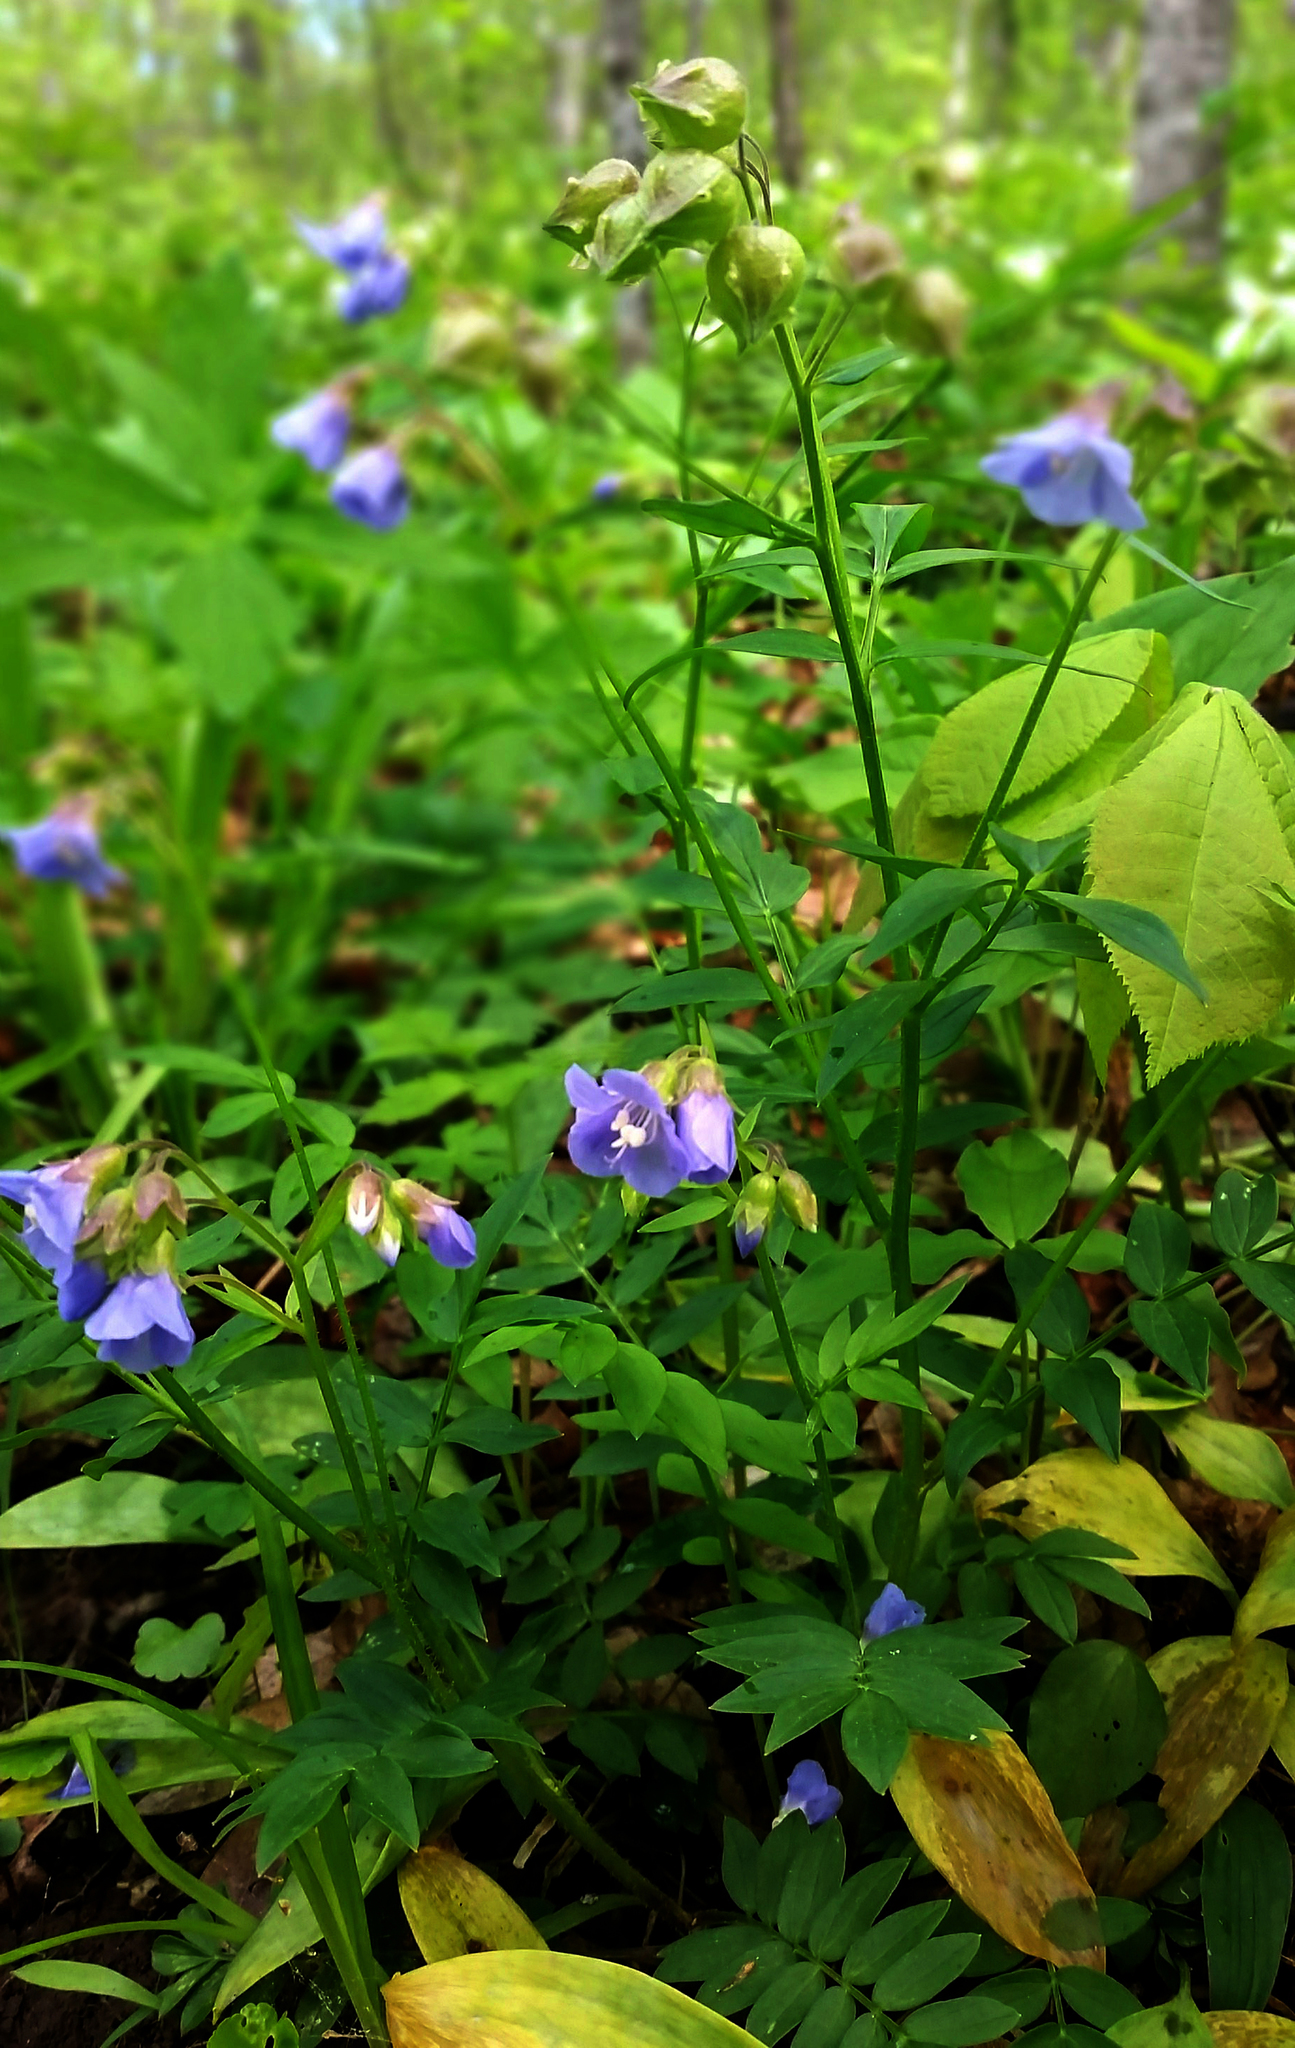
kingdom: Plantae
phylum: Tracheophyta
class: Magnoliopsida
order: Ericales
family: Polemoniaceae
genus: Polemonium
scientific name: Polemonium reptans
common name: Creeping jacob's-ladder
